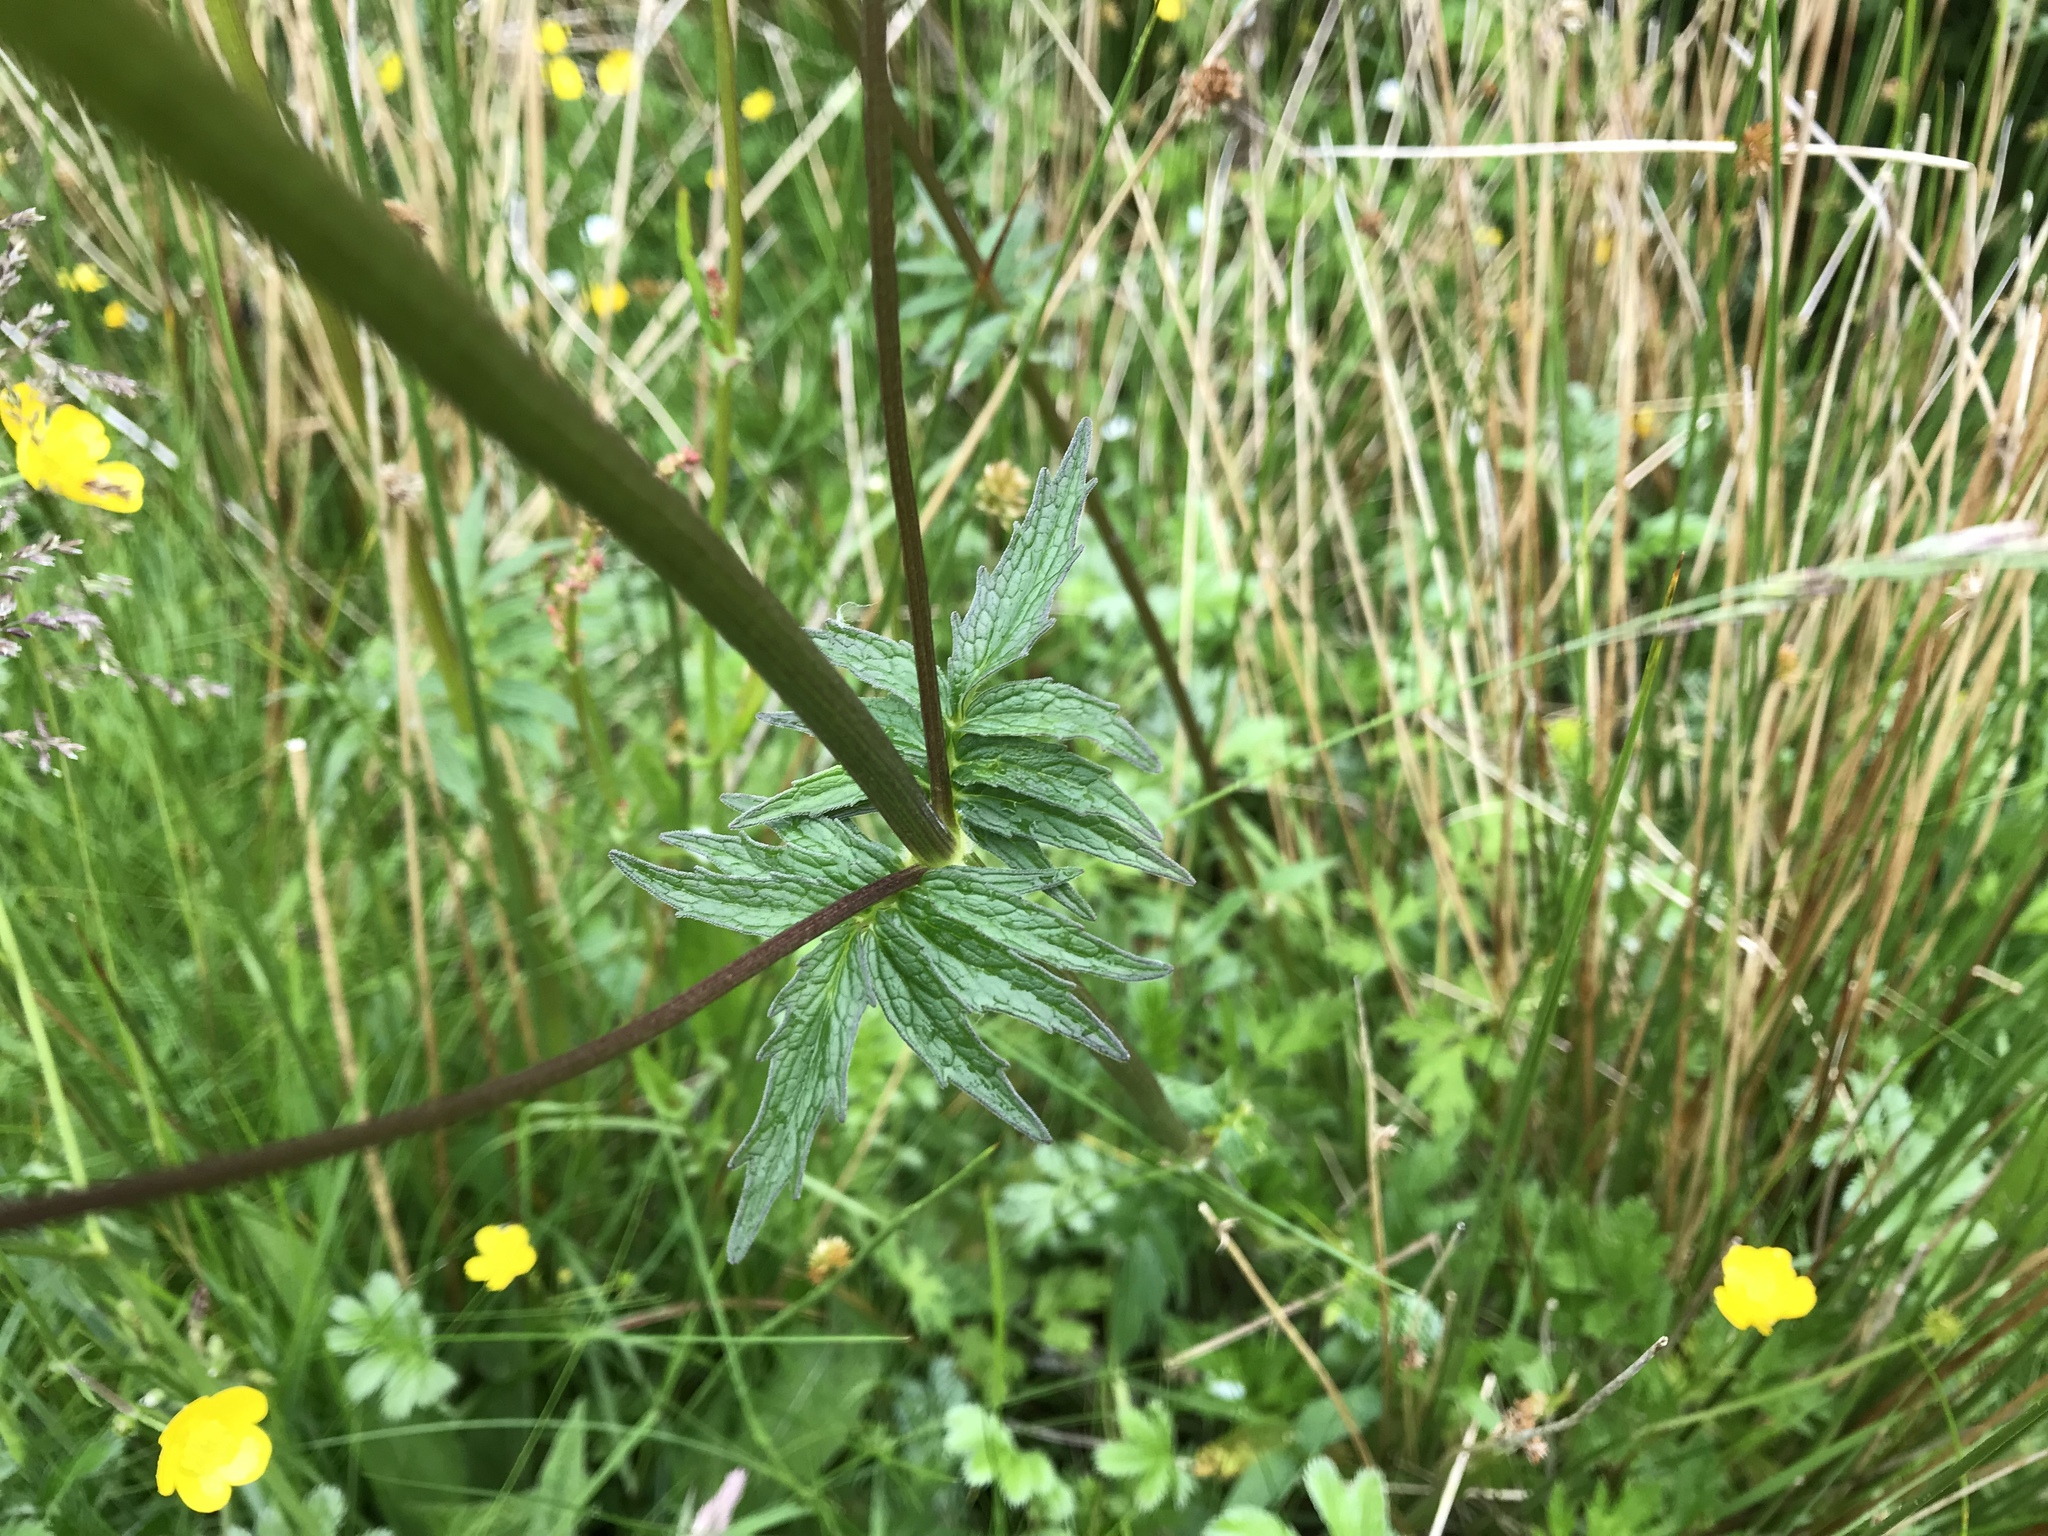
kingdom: Plantae
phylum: Tracheophyta
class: Magnoliopsida
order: Dipsacales
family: Caprifoliaceae
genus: Valeriana
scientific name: Valeriana officinalis
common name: Common valerian
